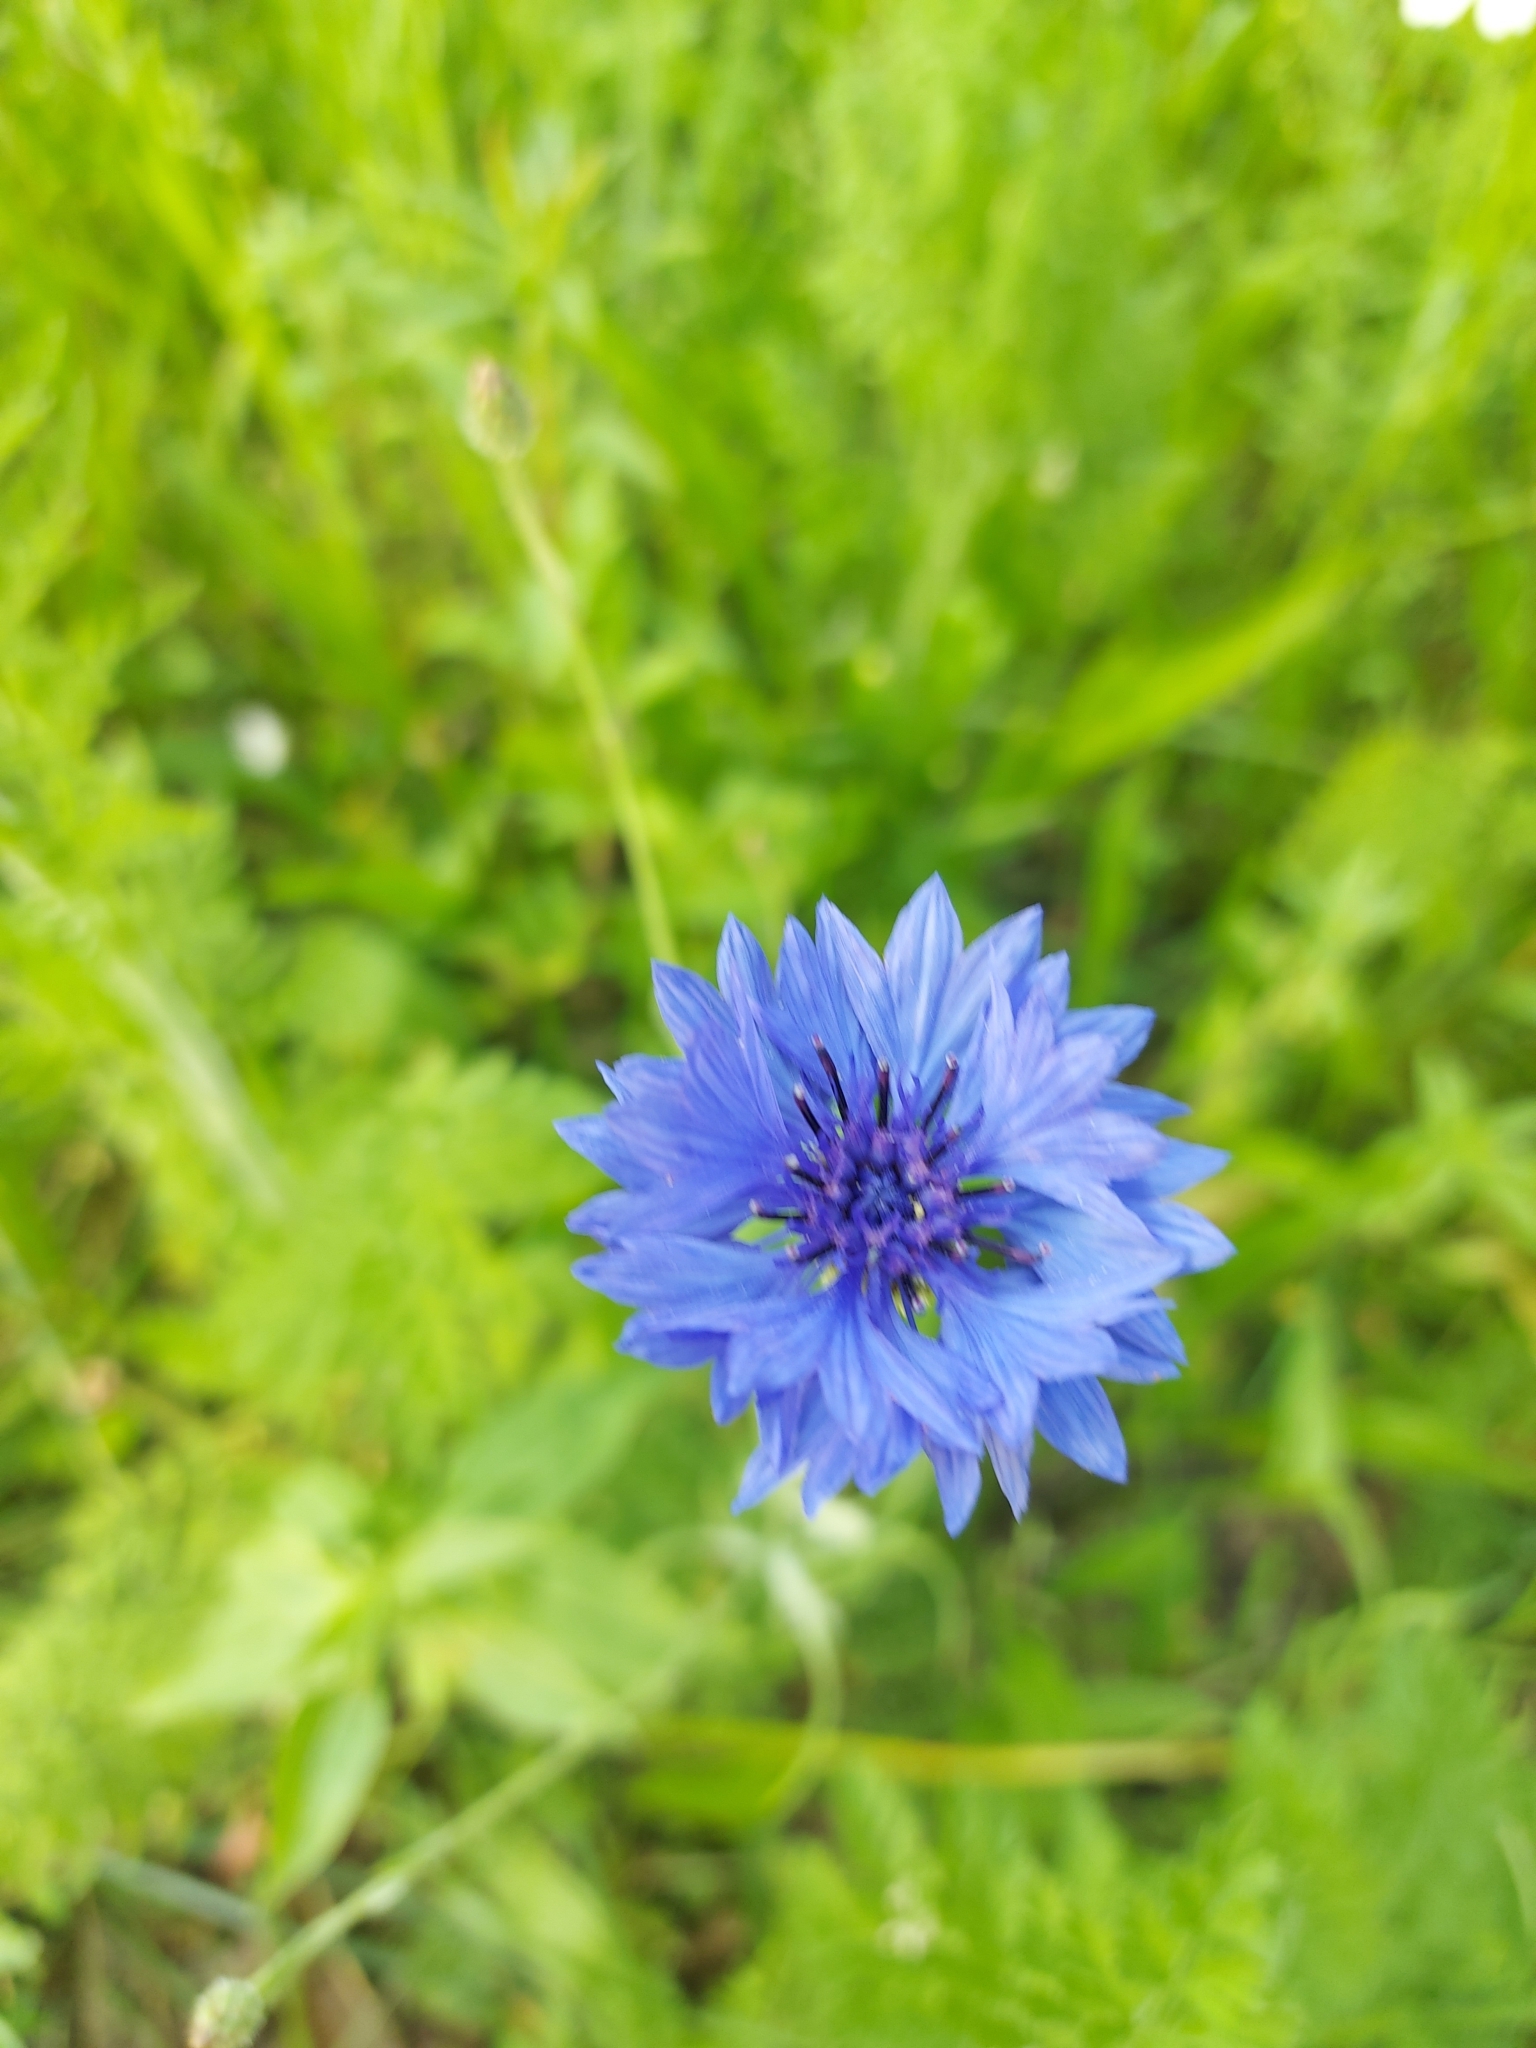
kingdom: Plantae
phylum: Tracheophyta
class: Magnoliopsida
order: Asterales
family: Asteraceae
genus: Centaurea
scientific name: Centaurea cyanus
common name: Cornflower
